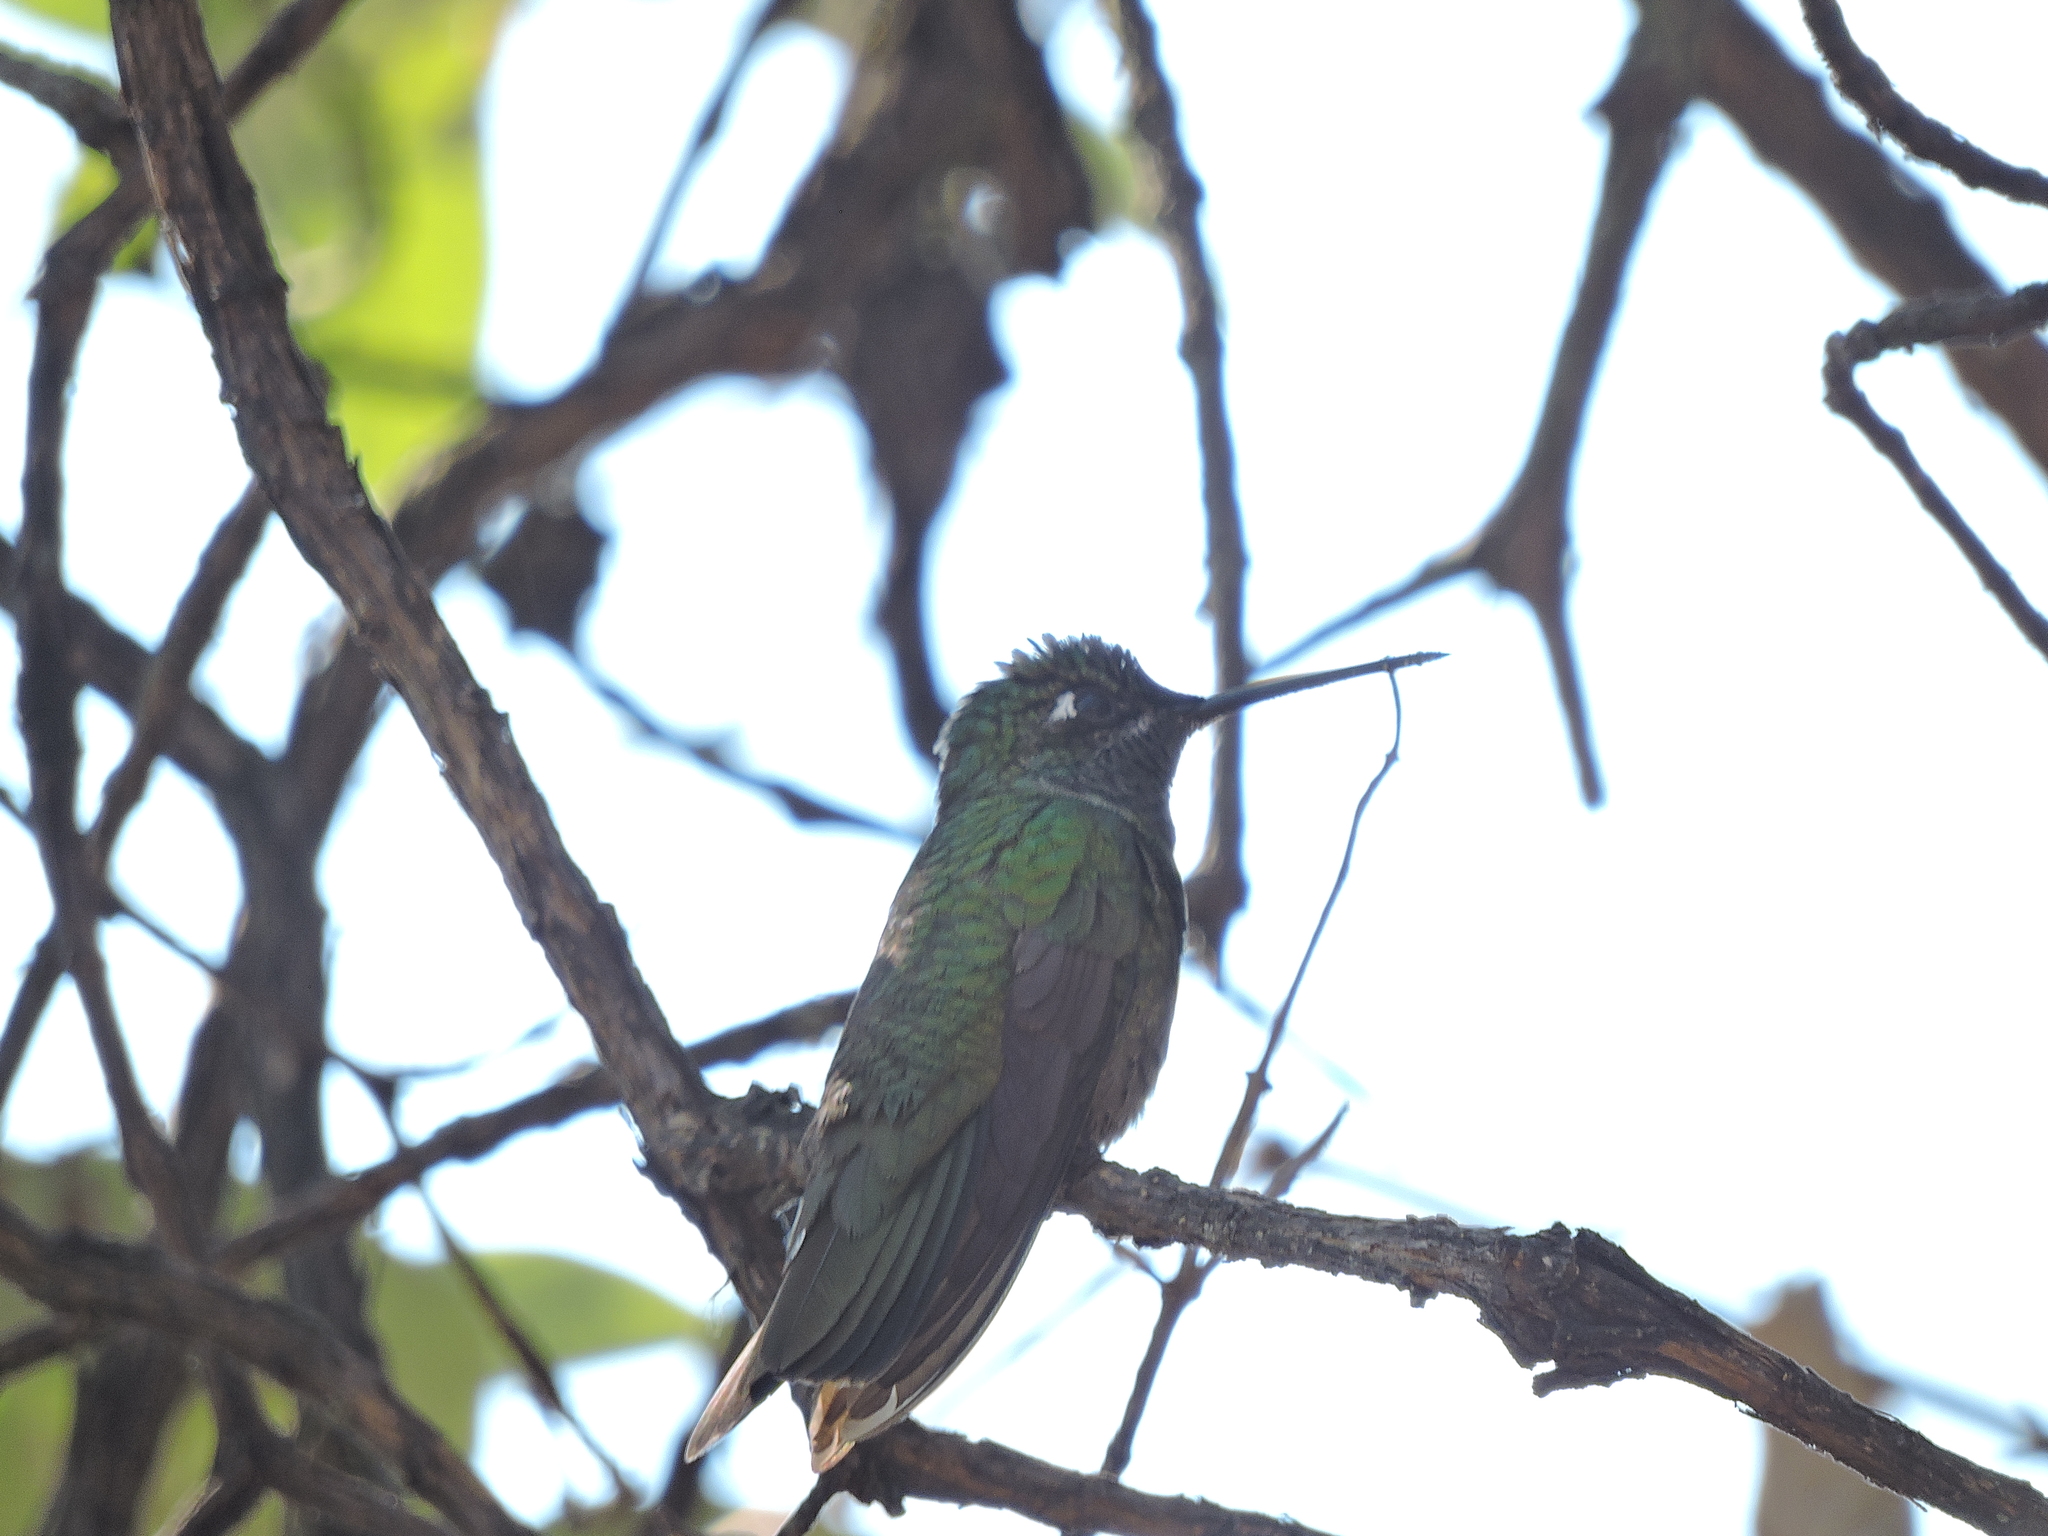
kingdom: Animalia
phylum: Chordata
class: Aves
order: Apodiformes
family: Trochilidae
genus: Eugenes
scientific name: Eugenes fulgens
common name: Magnificent hummingbird
